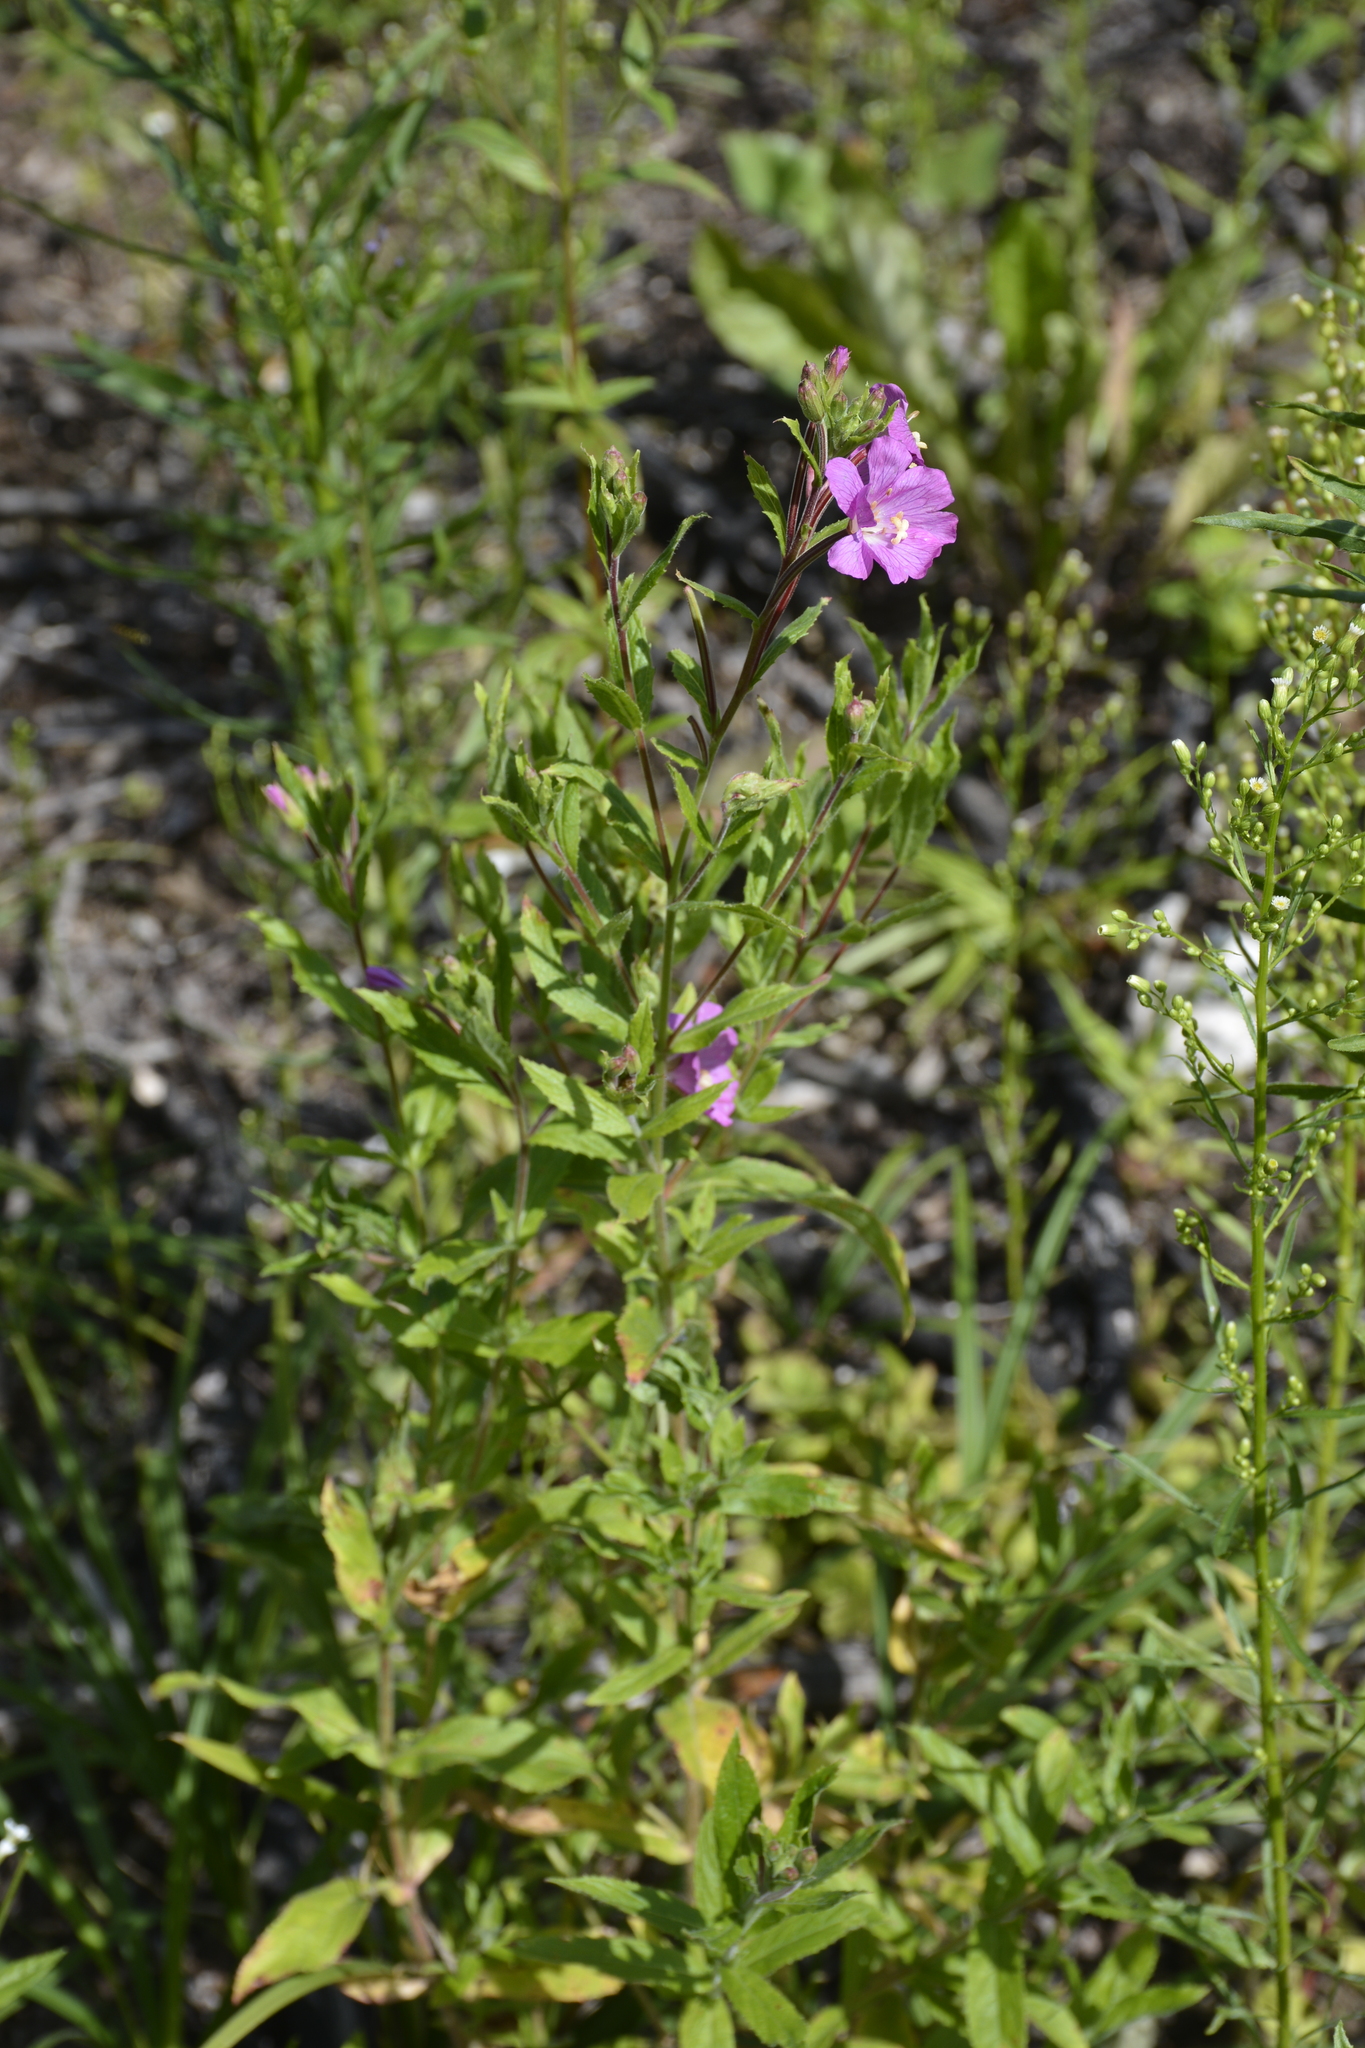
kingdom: Plantae
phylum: Tracheophyta
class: Magnoliopsida
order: Myrtales
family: Onagraceae
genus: Epilobium
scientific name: Epilobium hirsutum
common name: Great willowherb
